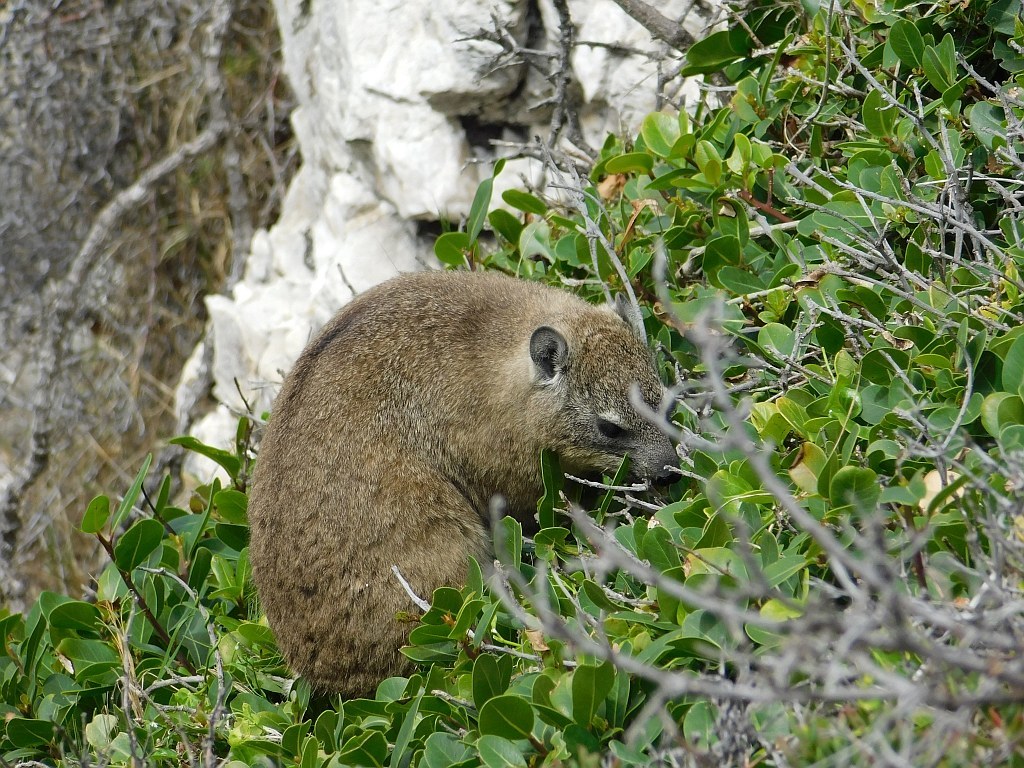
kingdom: Animalia
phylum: Chordata
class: Mammalia
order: Hyracoidea
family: Procaviidae
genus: Procavia
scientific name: Procavia capensis
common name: Rock hyrax
